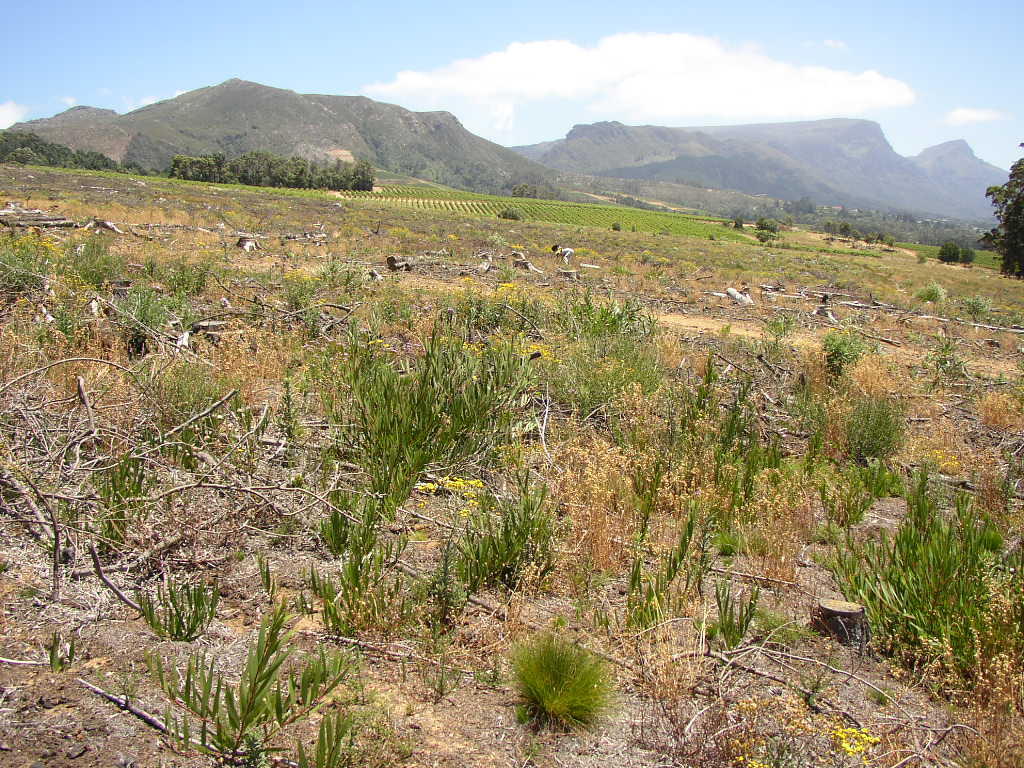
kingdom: Plantae
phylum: Tracheophyta
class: Magnoliopsida
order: Fabales
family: Fabaceae
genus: Acacia
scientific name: Acacia longifolia
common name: Sydney golden wattle
